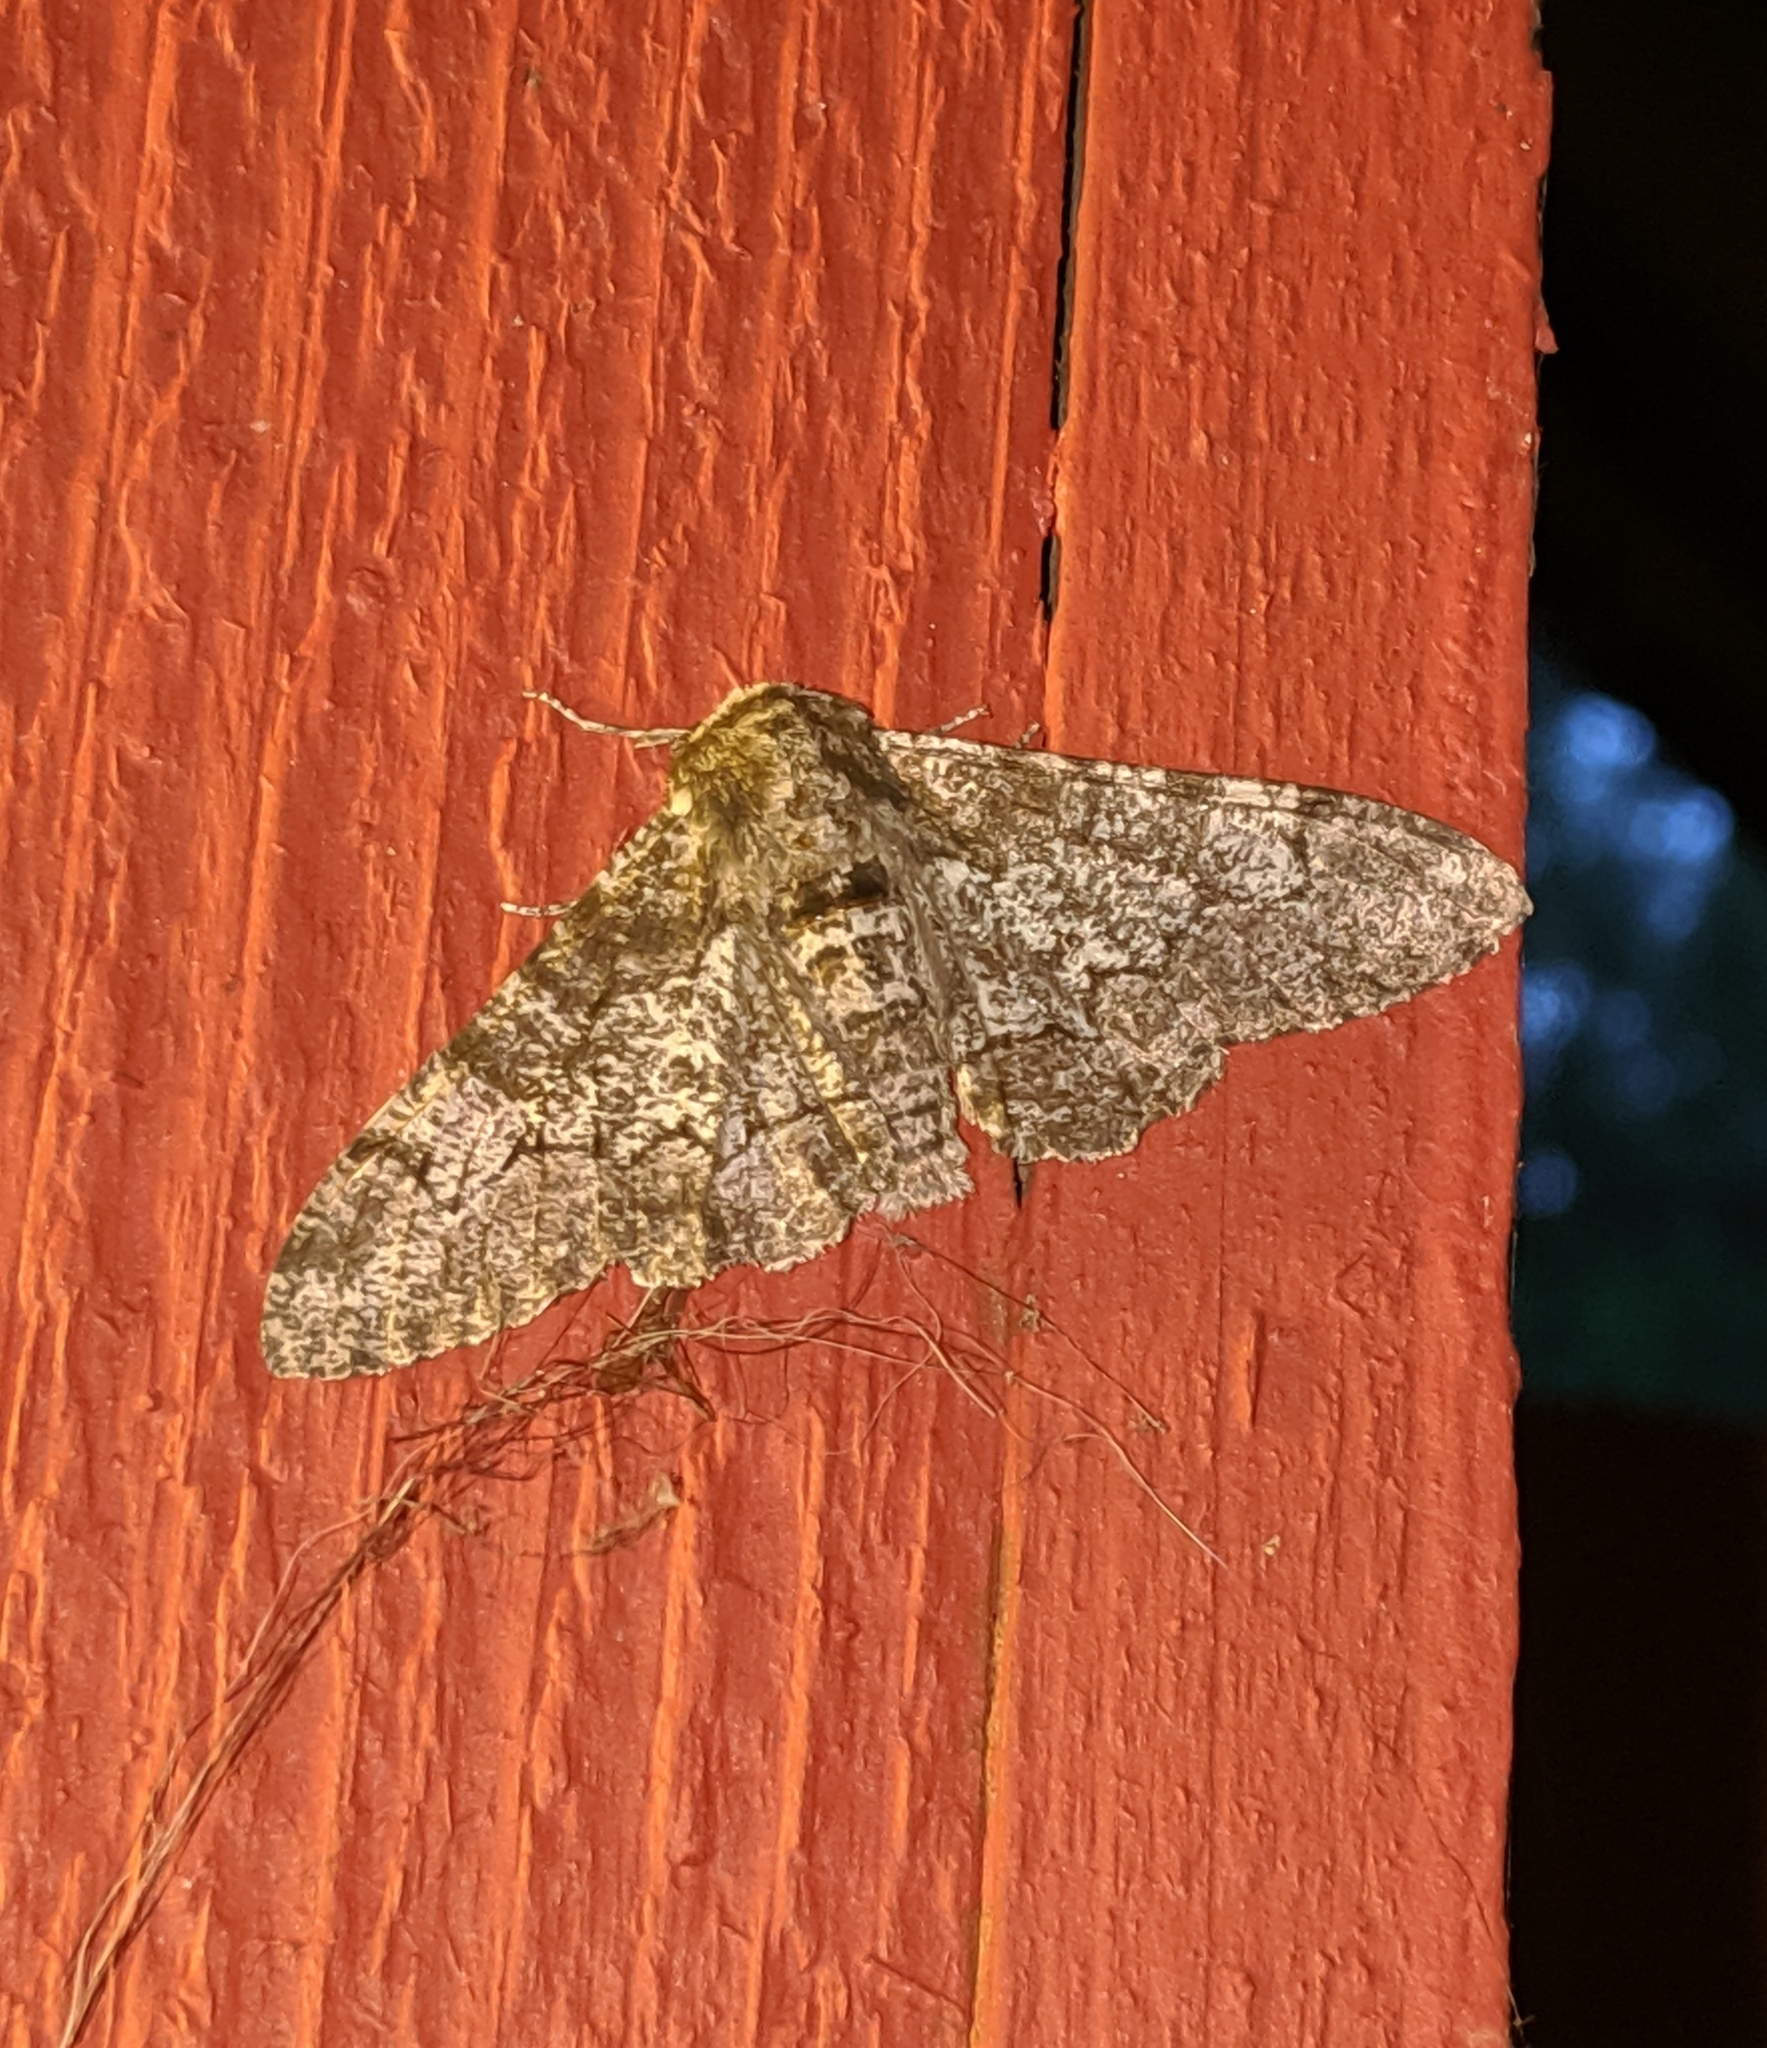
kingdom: Animalia
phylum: Arthropoda
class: Insecta
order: Lepidoptera
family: Geometridae
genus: Biston
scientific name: Biston betularia
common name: Peppered moth
